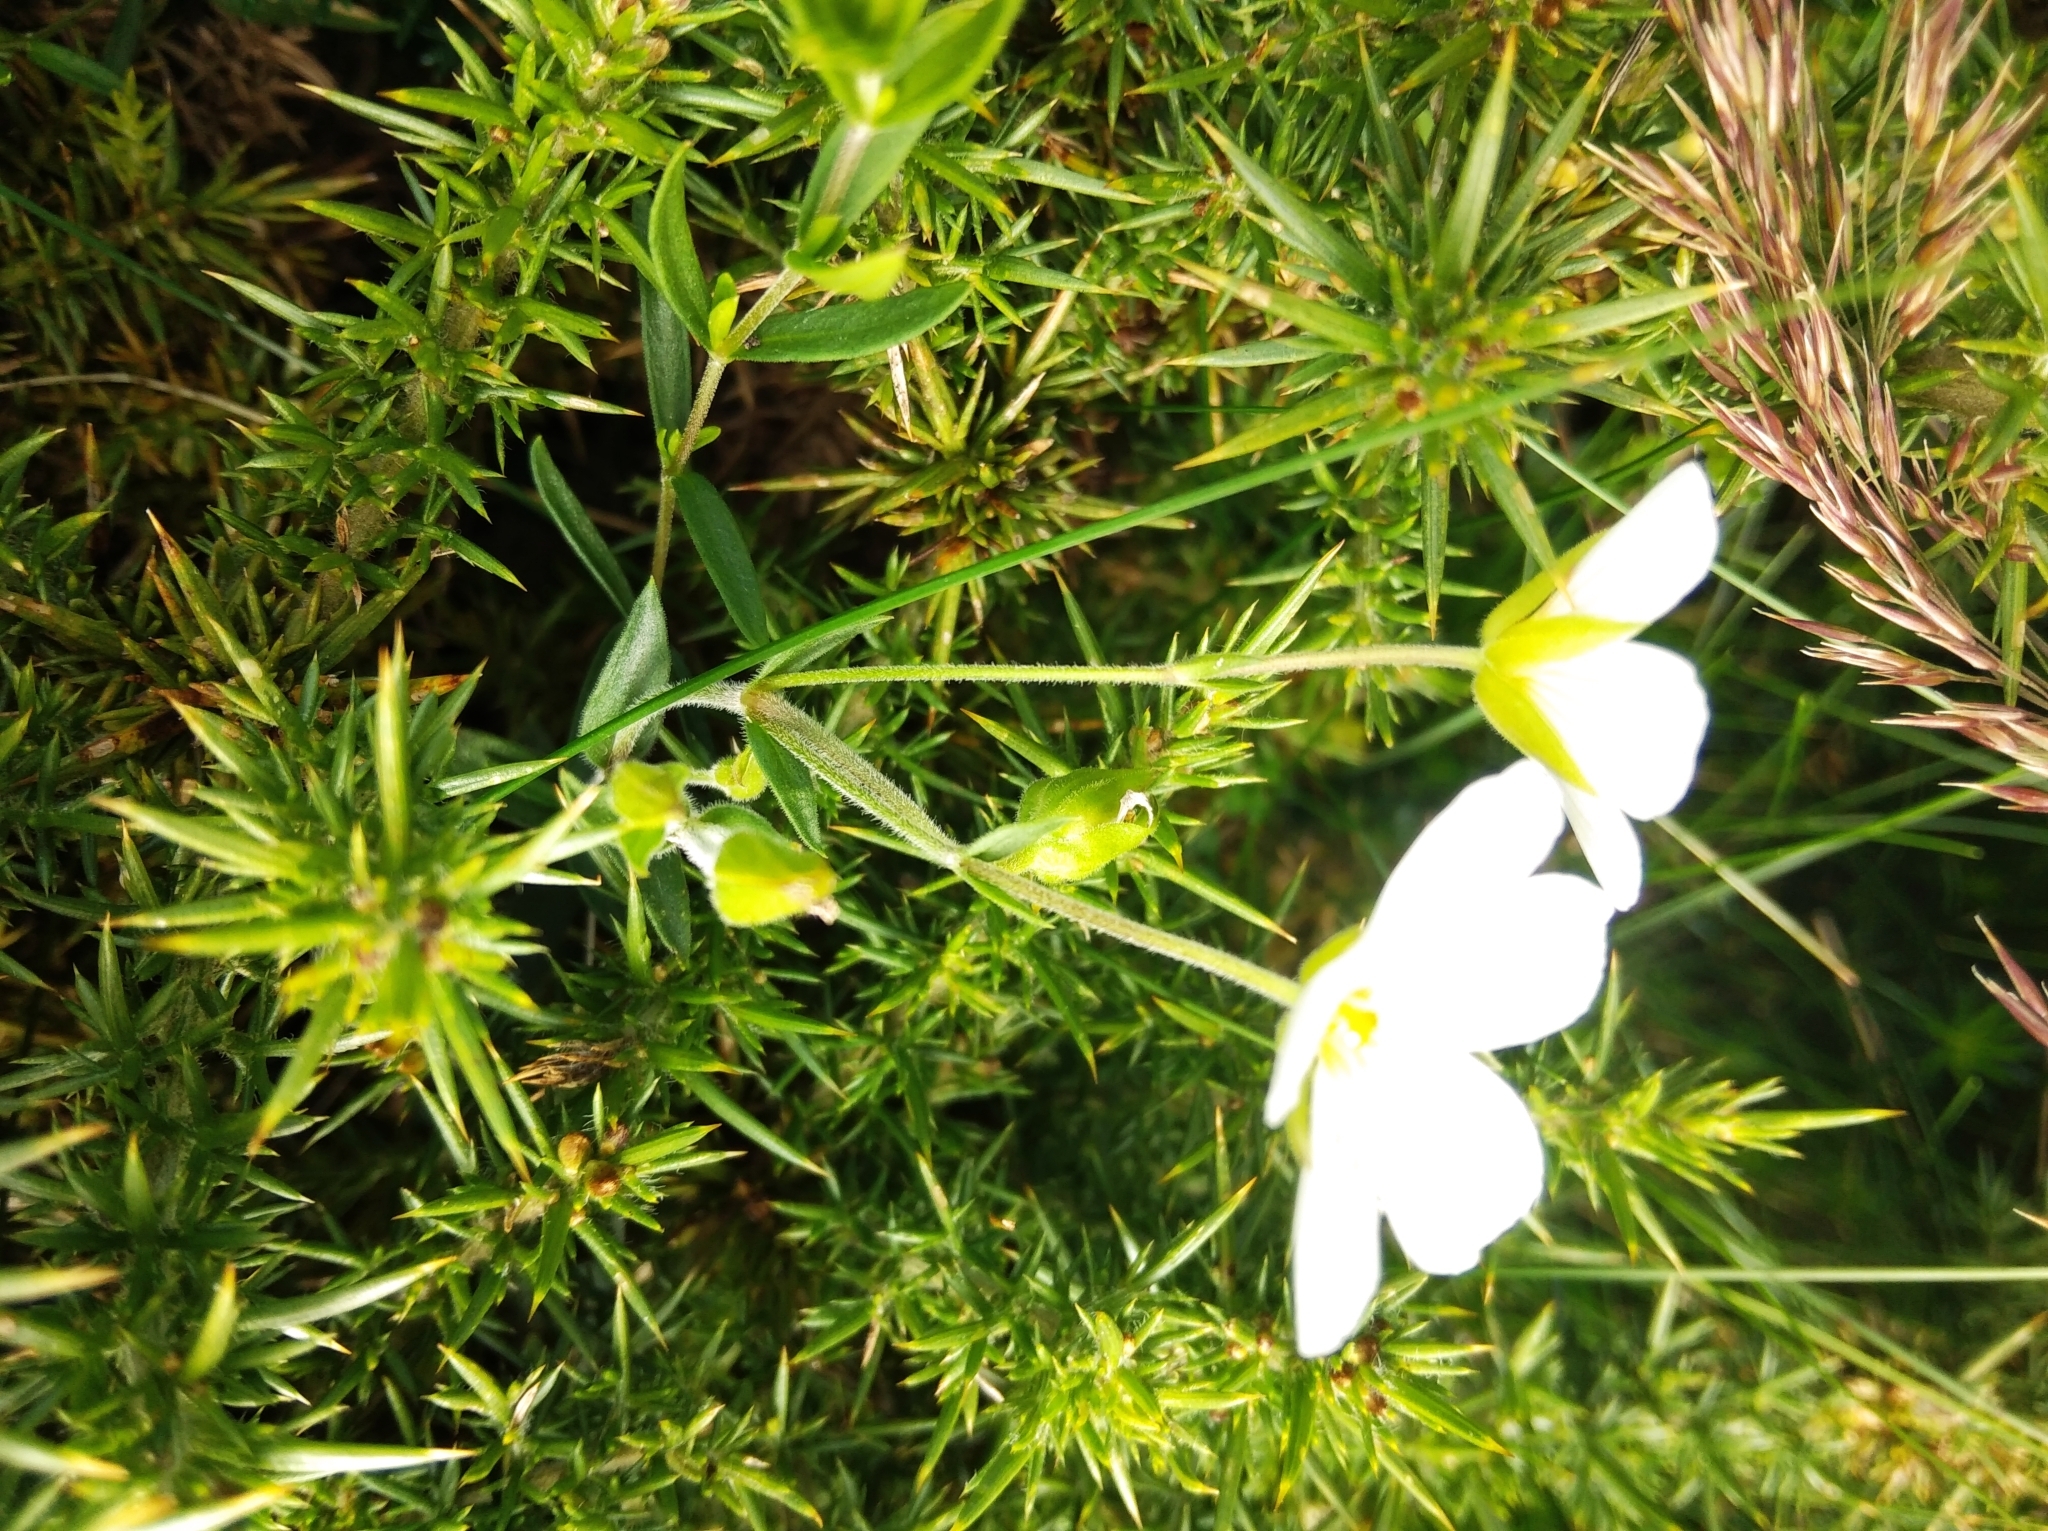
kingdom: Plantae
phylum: Tracheophyta
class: Magnoliopsida
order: Caryophyllales
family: Caryophyllaceae
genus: Arenaria
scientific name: Arenaria montana
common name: Mountain sandwort
